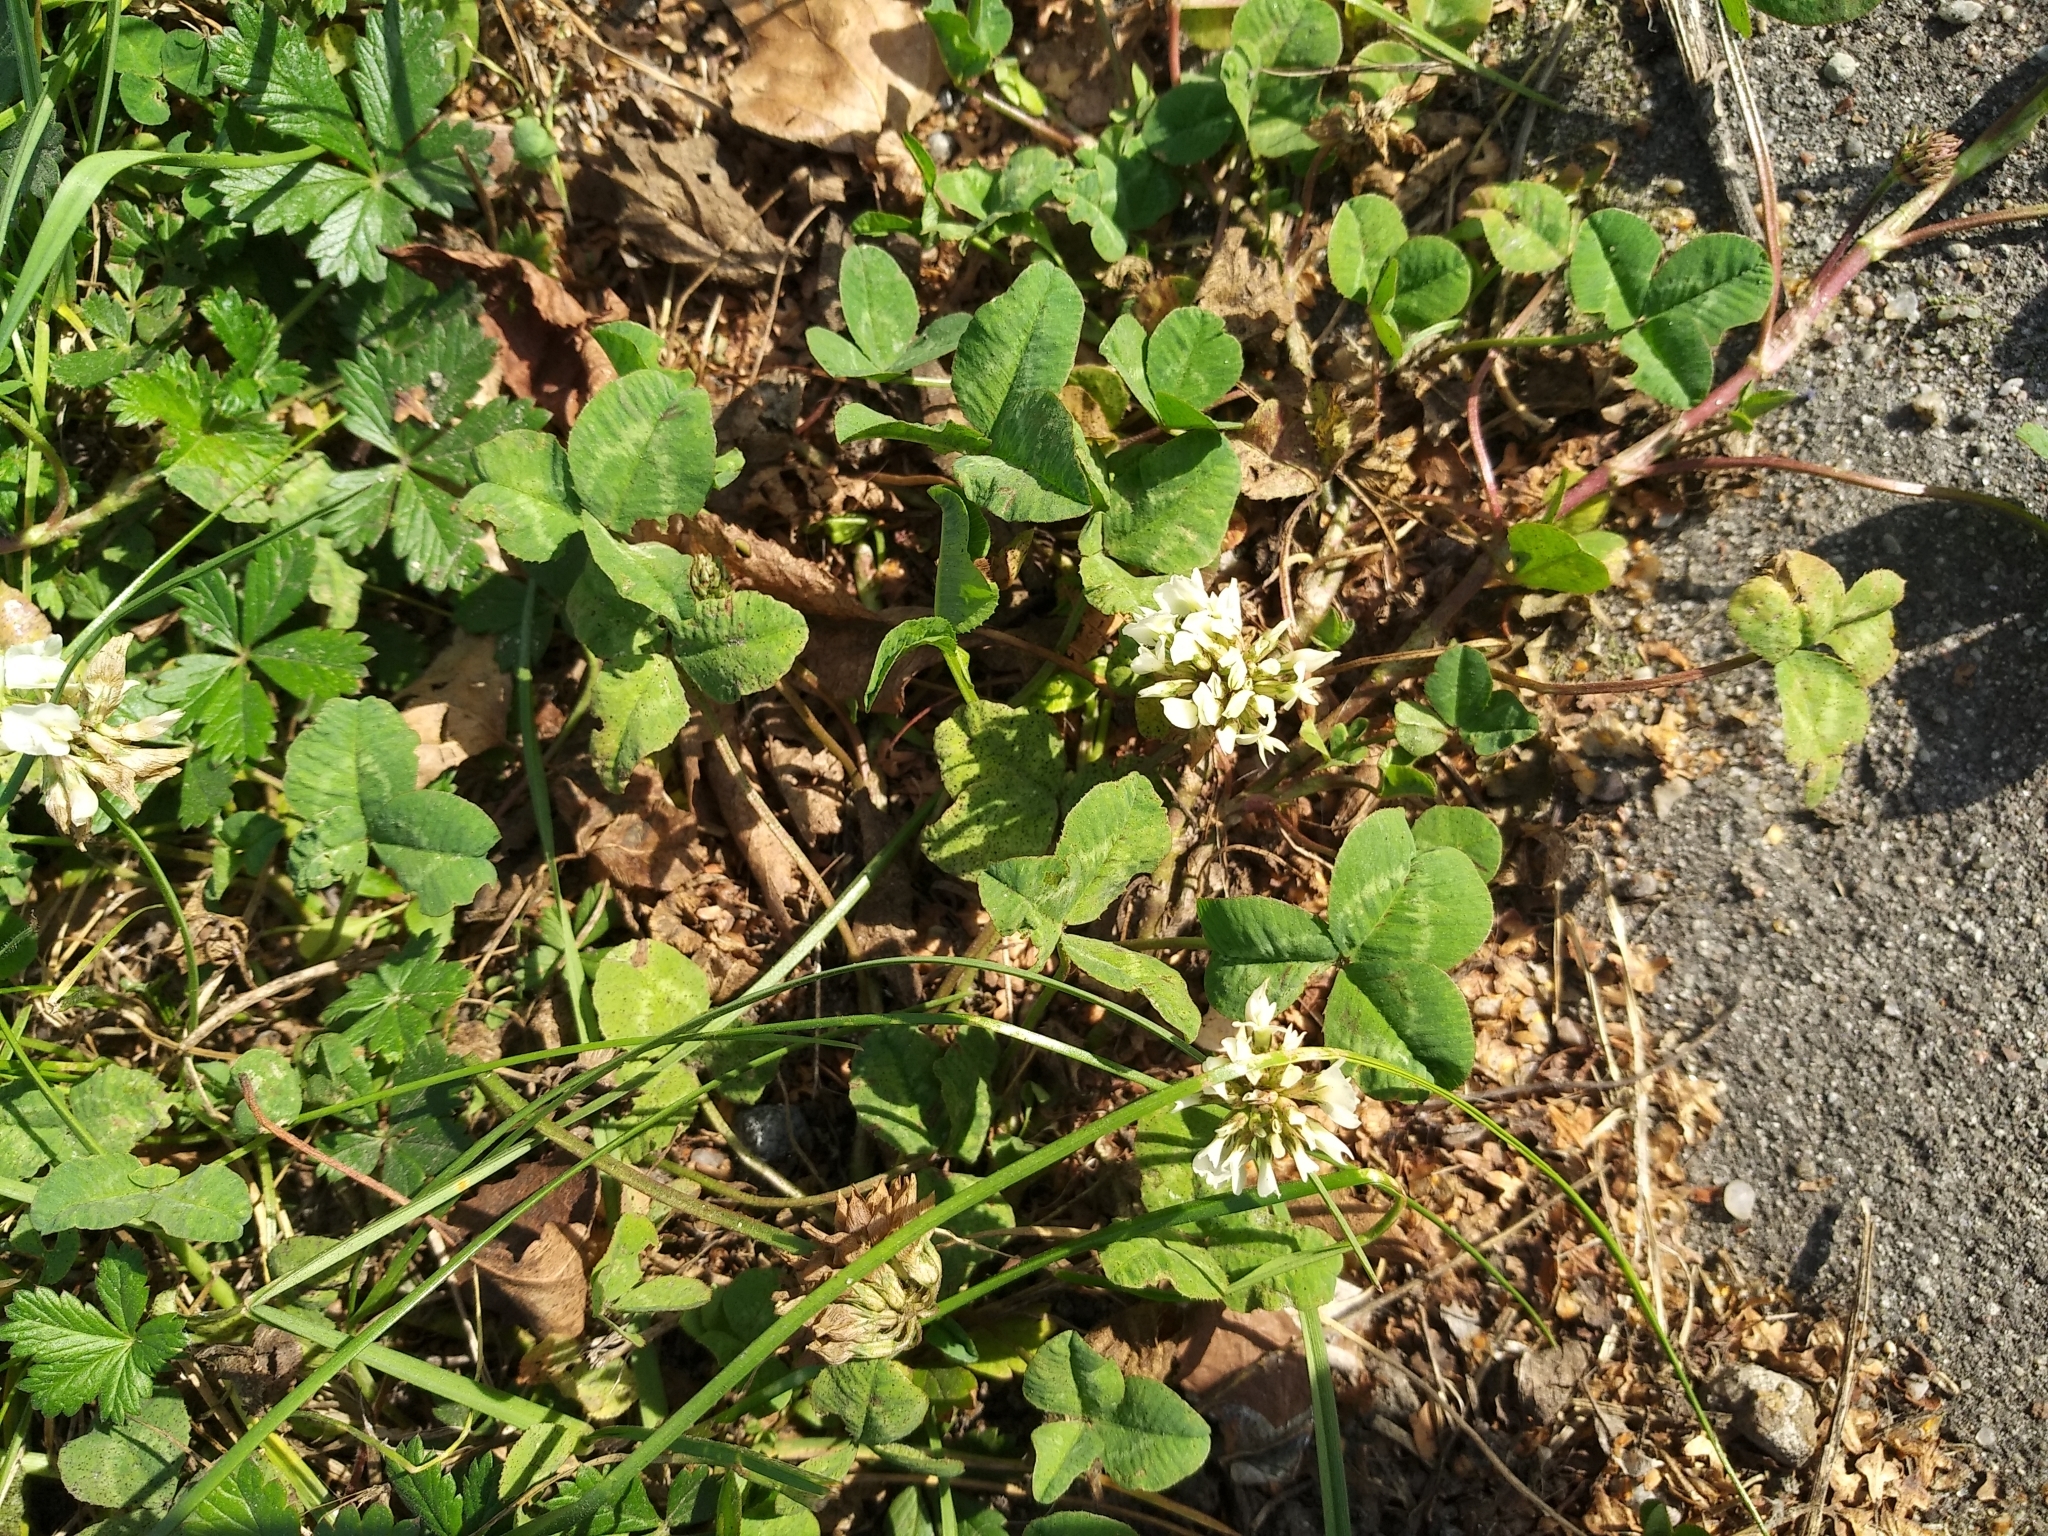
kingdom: Plantae
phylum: Tracheophyta
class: Magnoliopsida
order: Fabales
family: Fabaceae
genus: Trifolium
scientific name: Trifolium repens
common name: White clover
